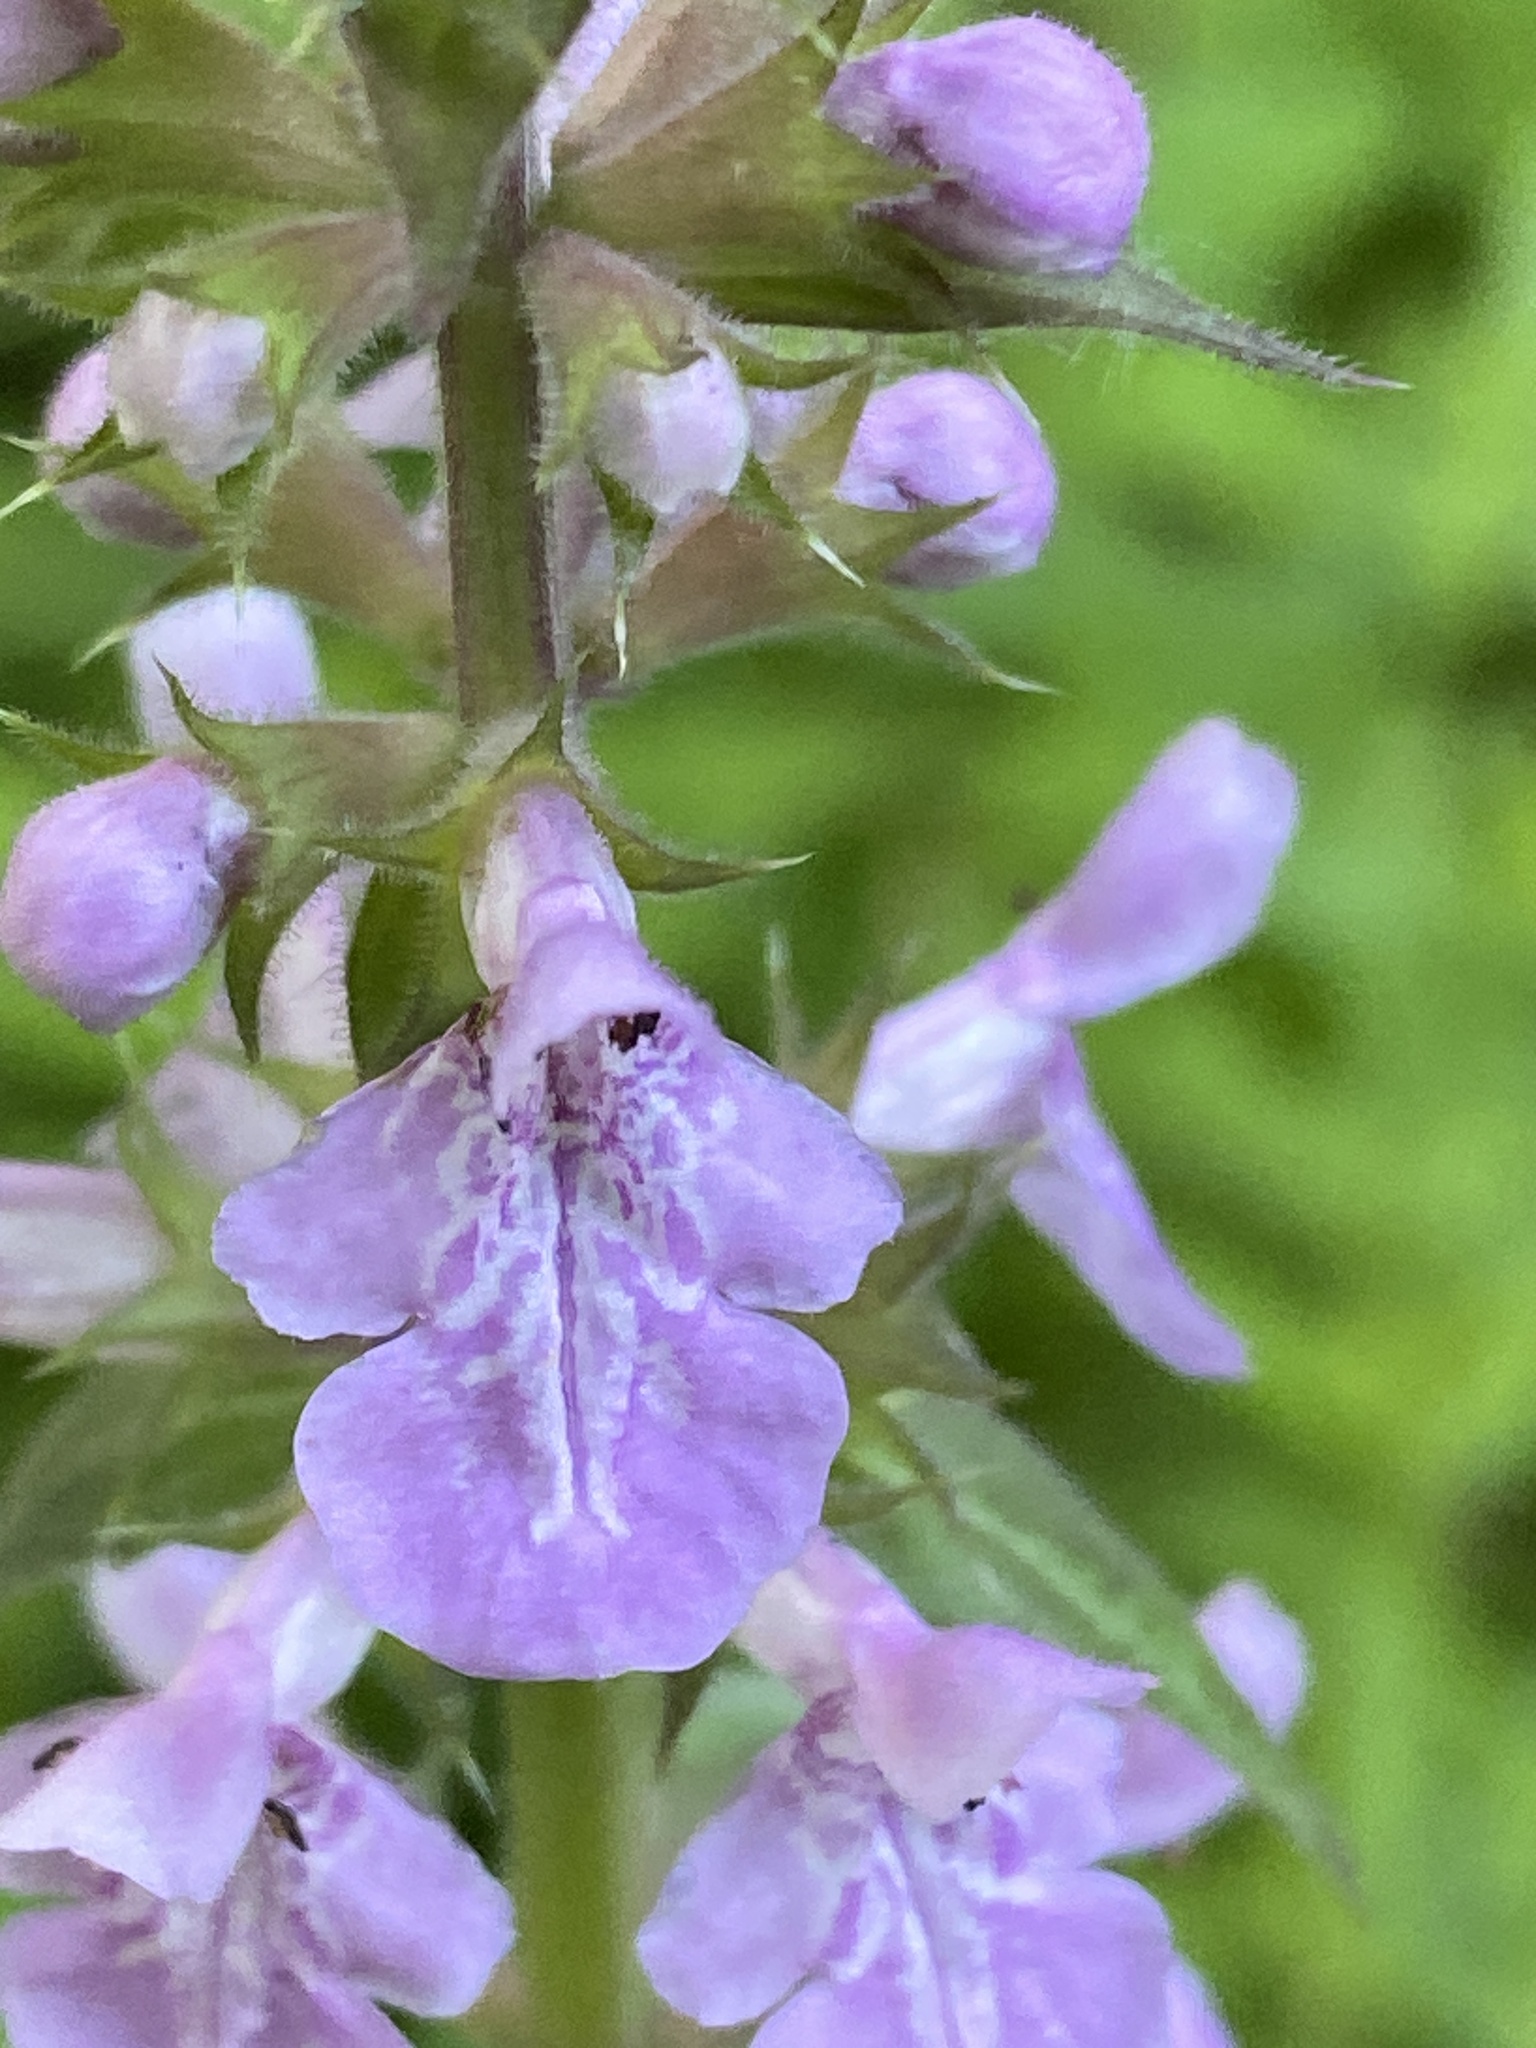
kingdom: Plantae
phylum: Tracheophyta
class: Magnoliopsida
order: Lamiales
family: Lamiaceae
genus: Stachys
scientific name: Stachys palustris
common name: Marsh woundwort
